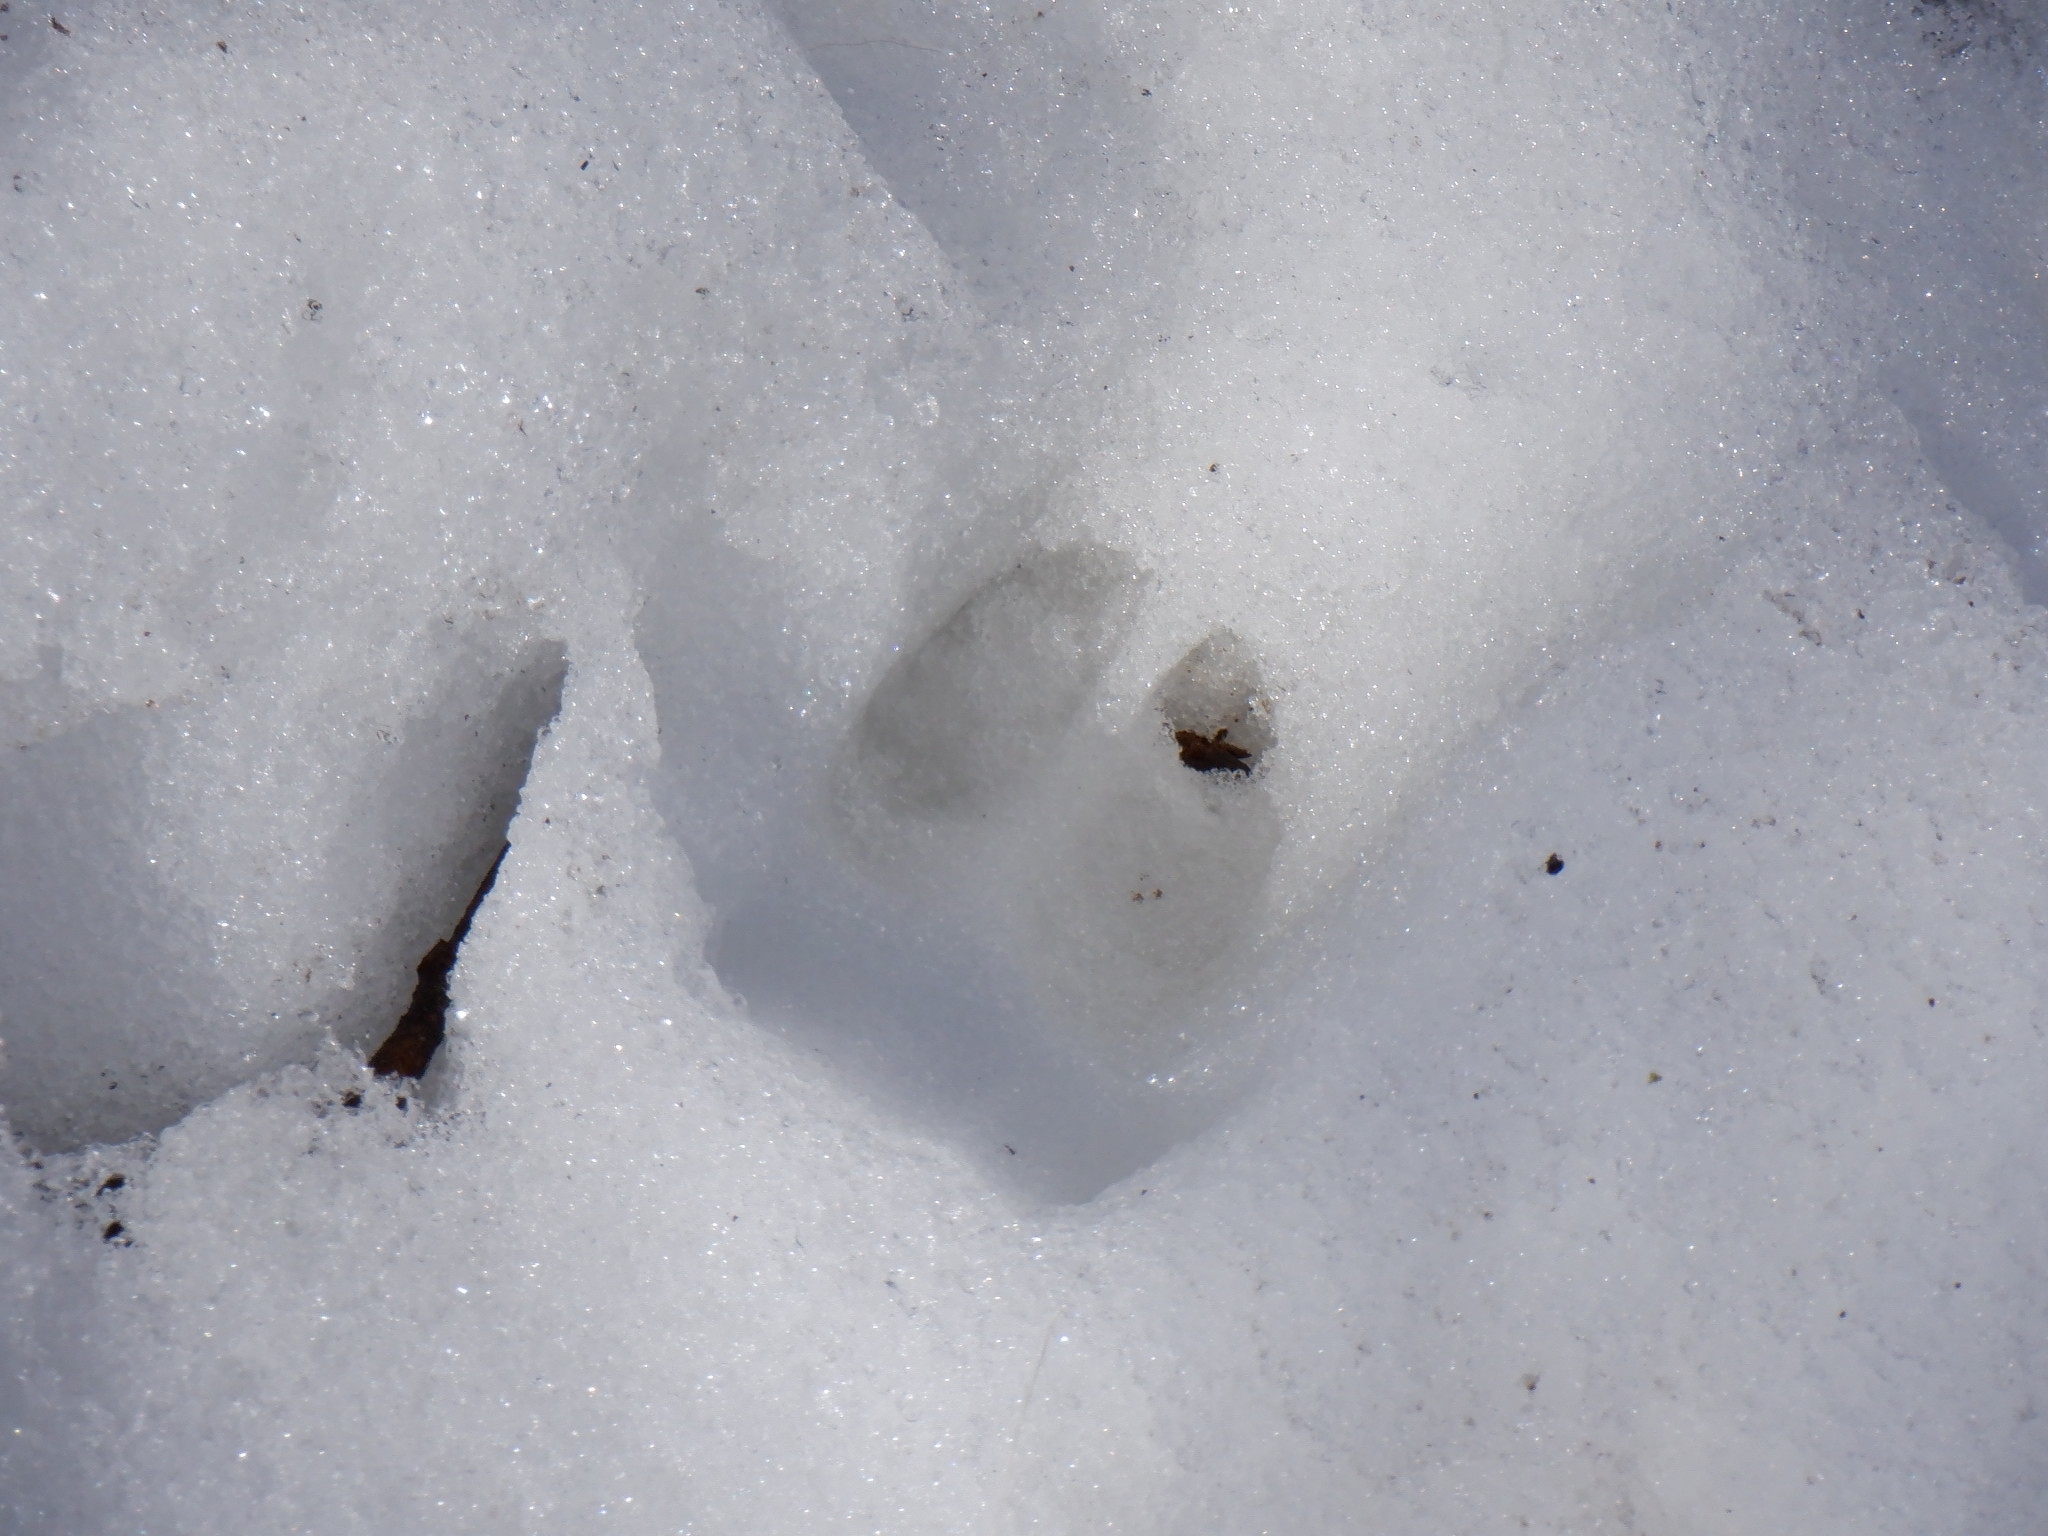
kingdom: Animalia
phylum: Chordata
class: Mammalia
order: Artiodactyla
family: Cervidae
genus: Odocoileus
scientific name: Odocoileus virginianus
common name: White-tailed deer
